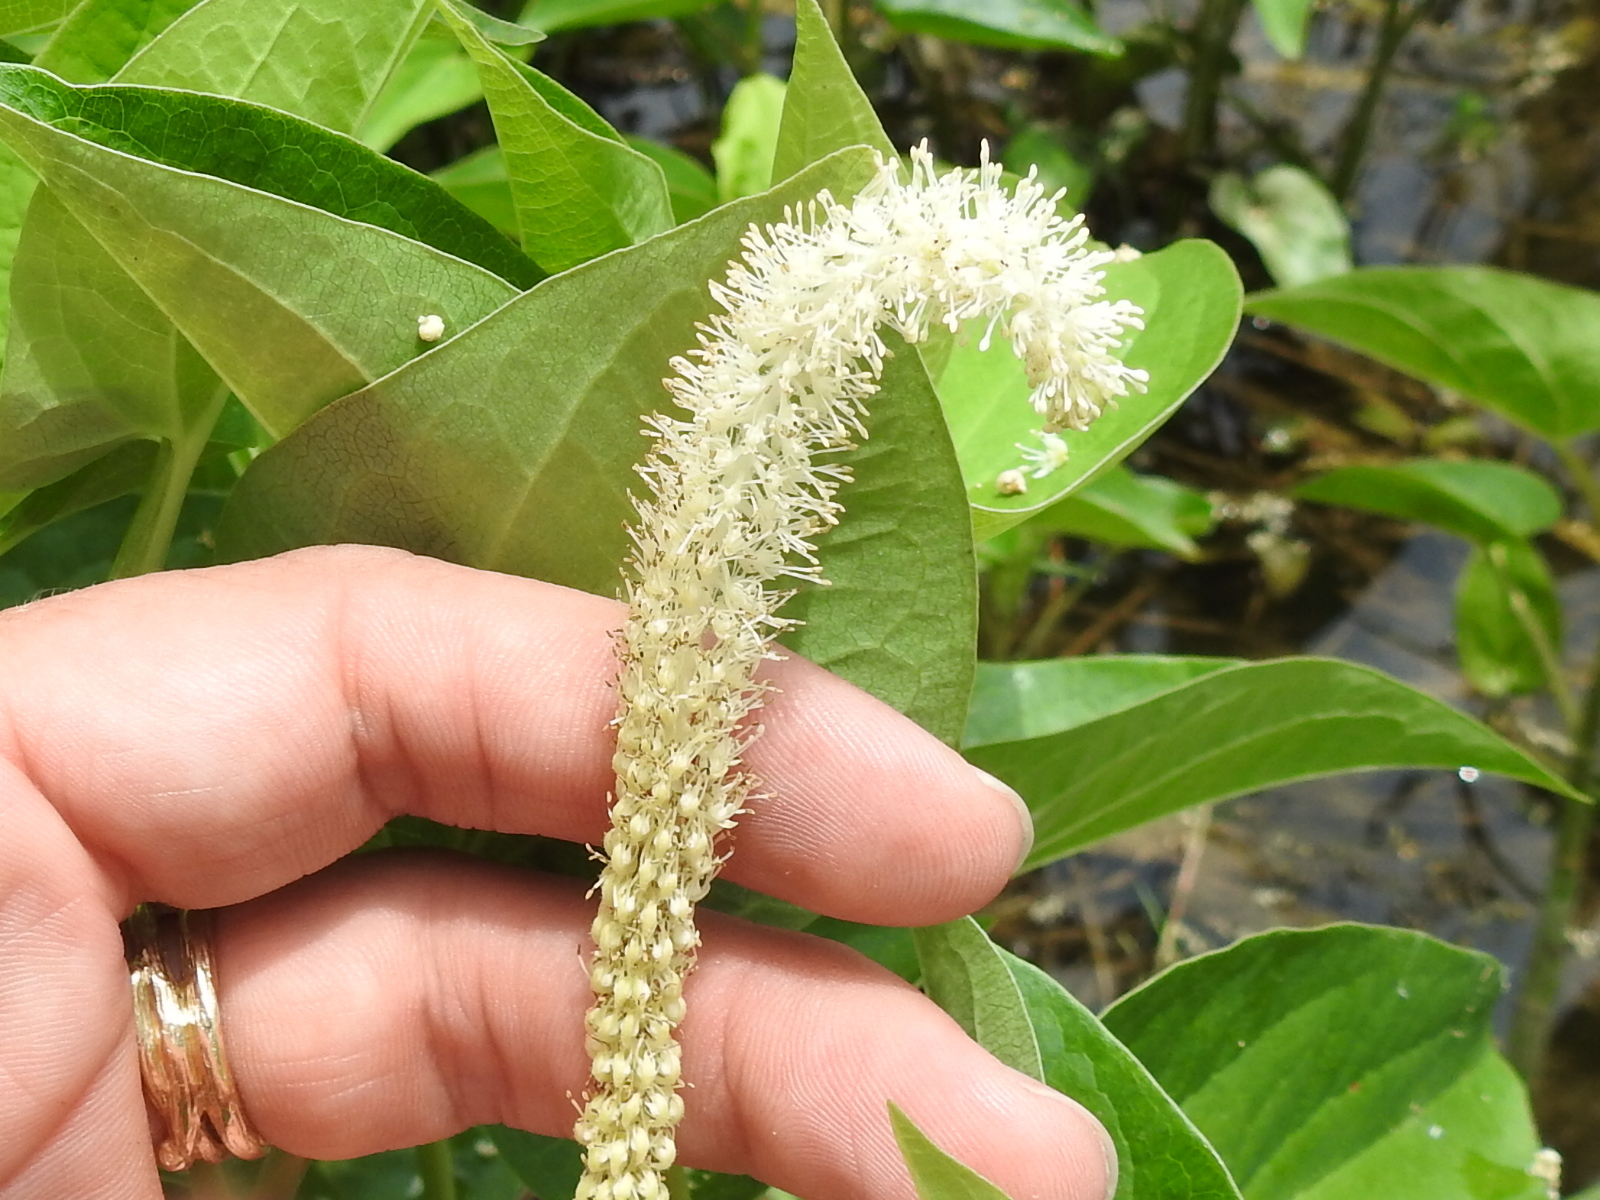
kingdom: Plantae
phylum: Tracheophyta
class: Magnoliopsida
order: Piperales
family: Saururaceae
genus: Saururus
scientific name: Saururus cernuus
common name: Lizard's-tail
